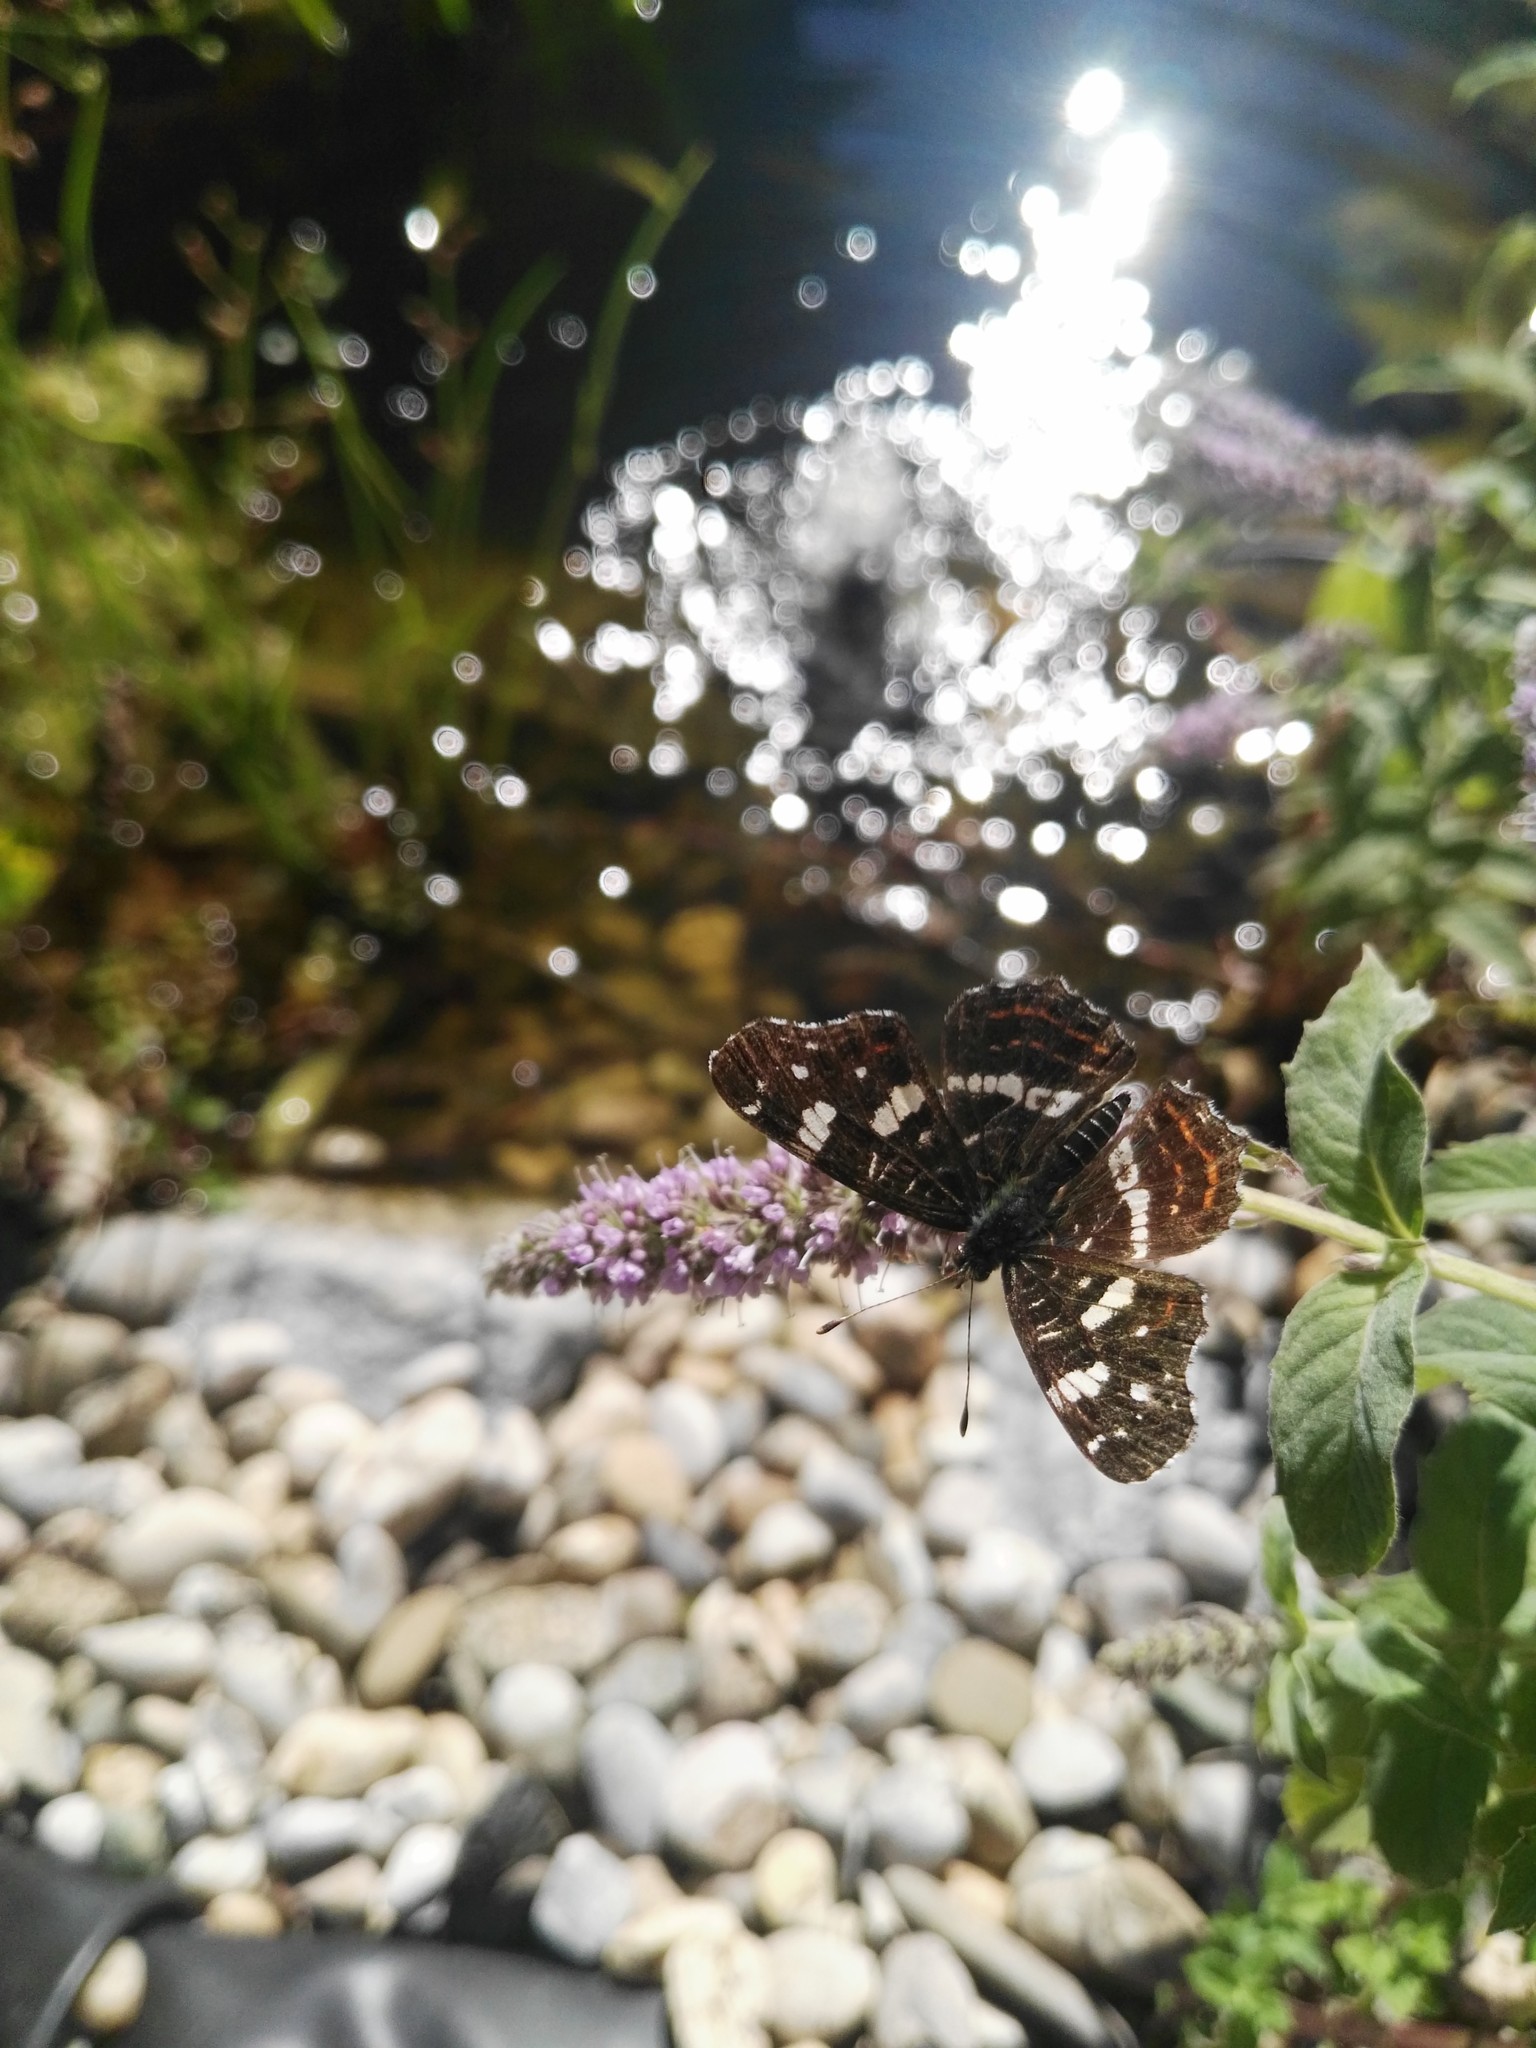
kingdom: Animalia
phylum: Arthropoda
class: Insecta
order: Lepidoptera
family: Nymphalidae
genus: Araschnia
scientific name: Araschnia levana
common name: Map butterfly
